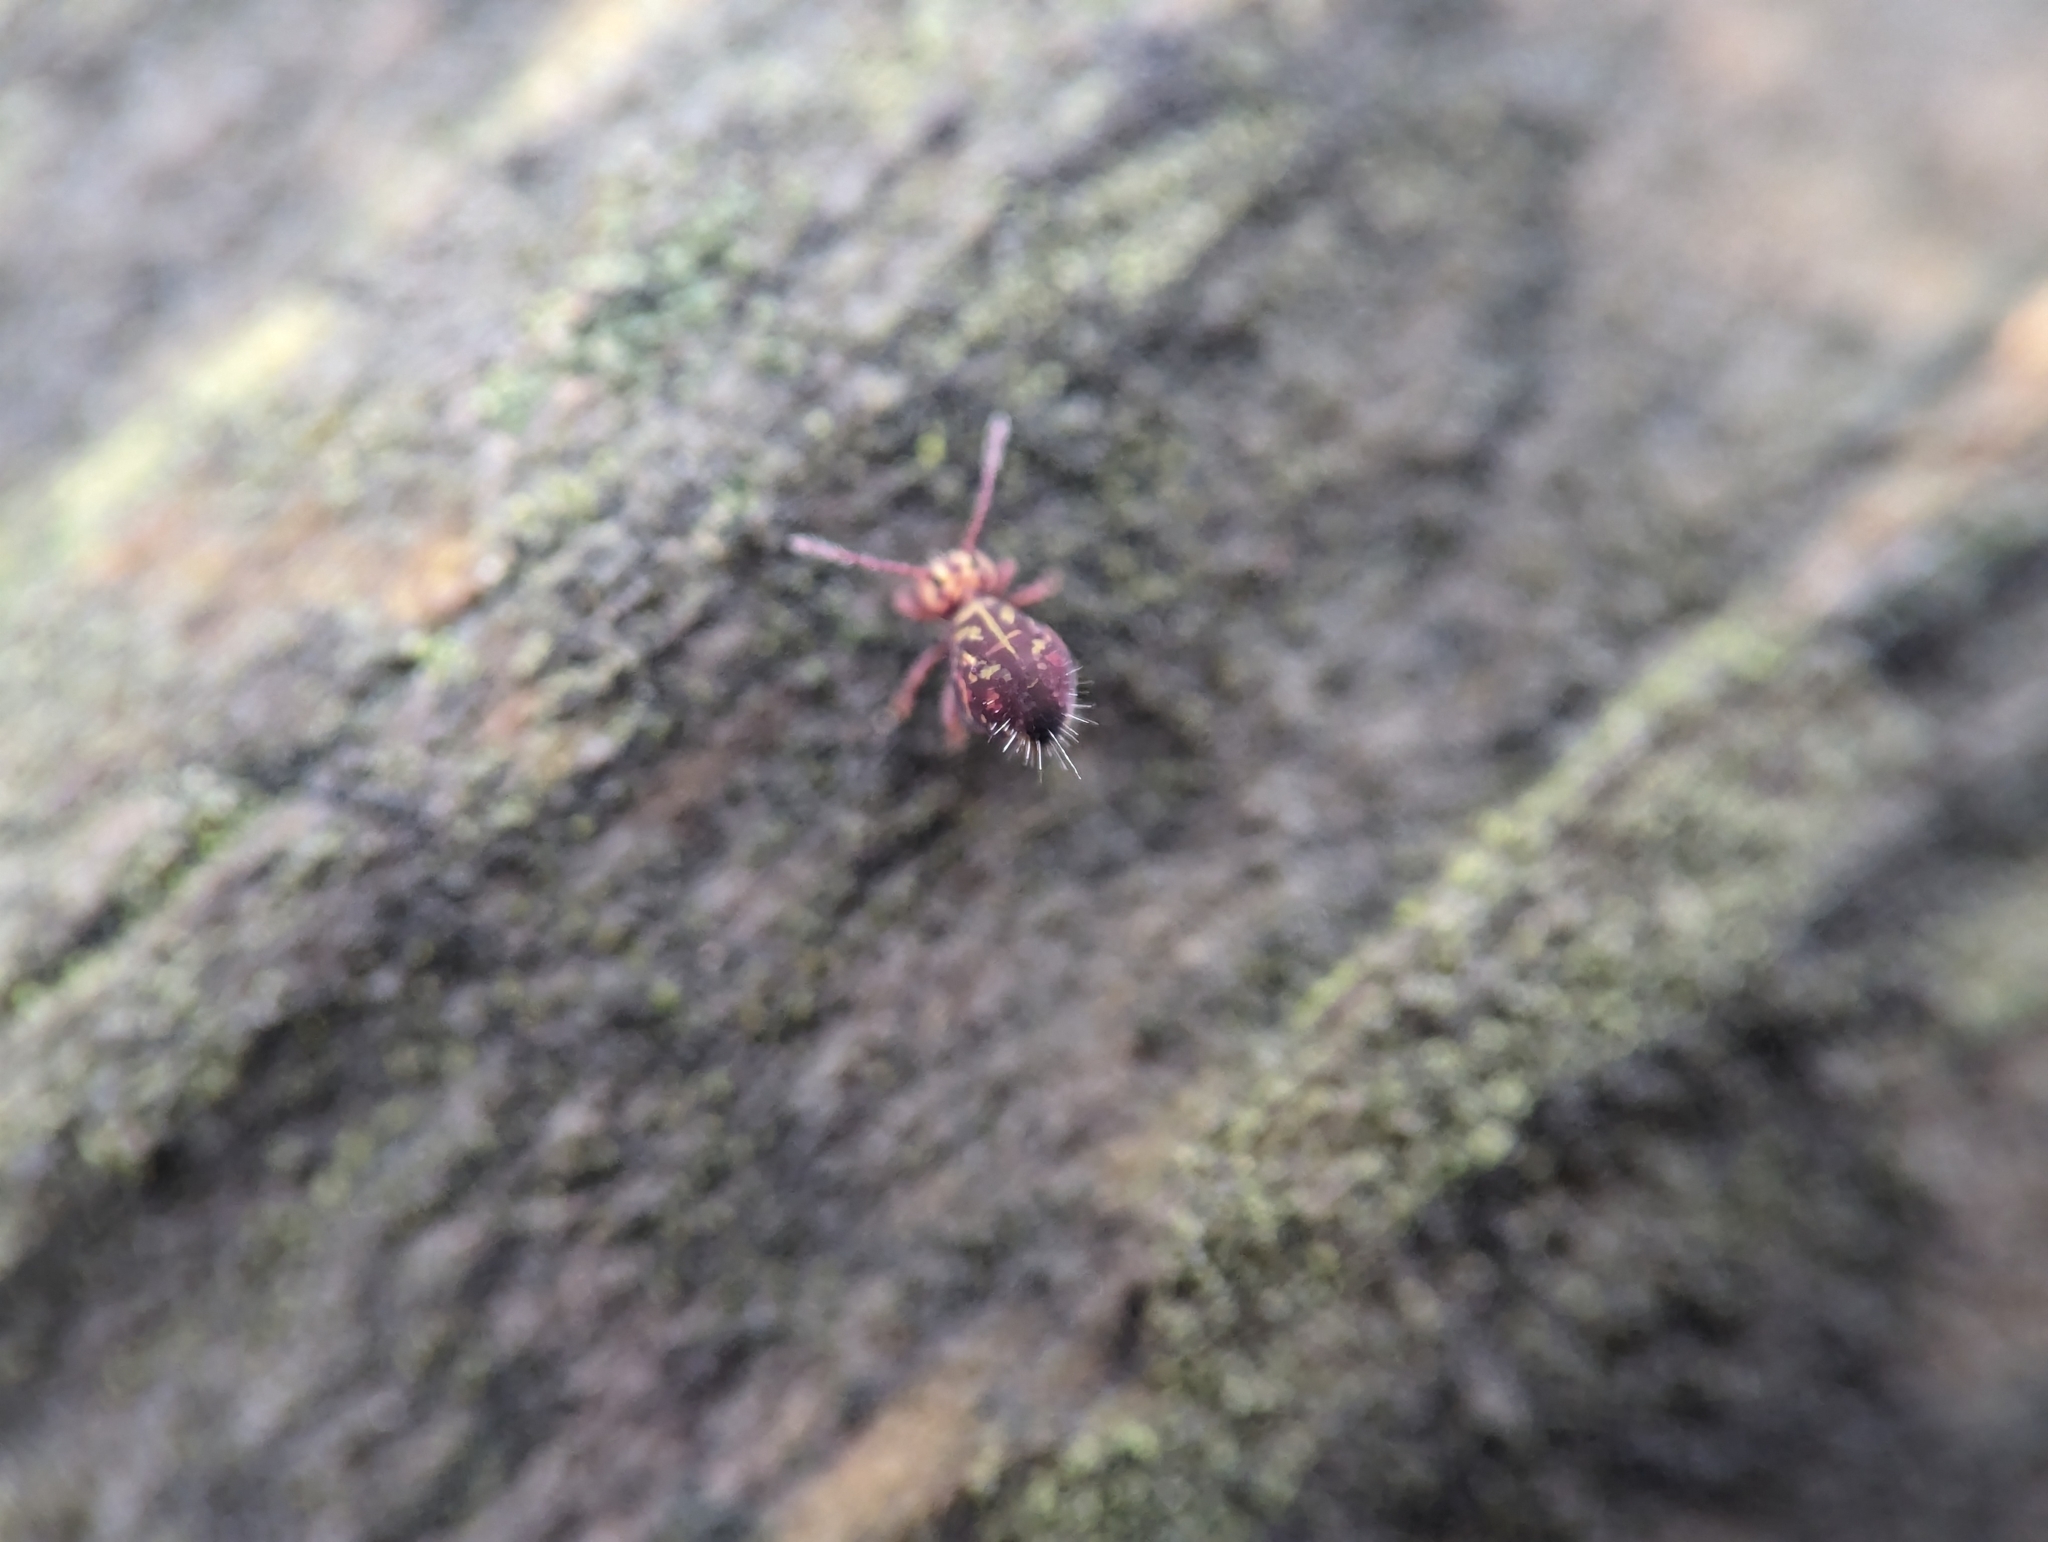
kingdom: Animalia
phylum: Arthropoda
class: Collembola
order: Symphypleona
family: Dicyrtomidae
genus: Dicyrtomina
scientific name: Dicyrtomina saundersi
